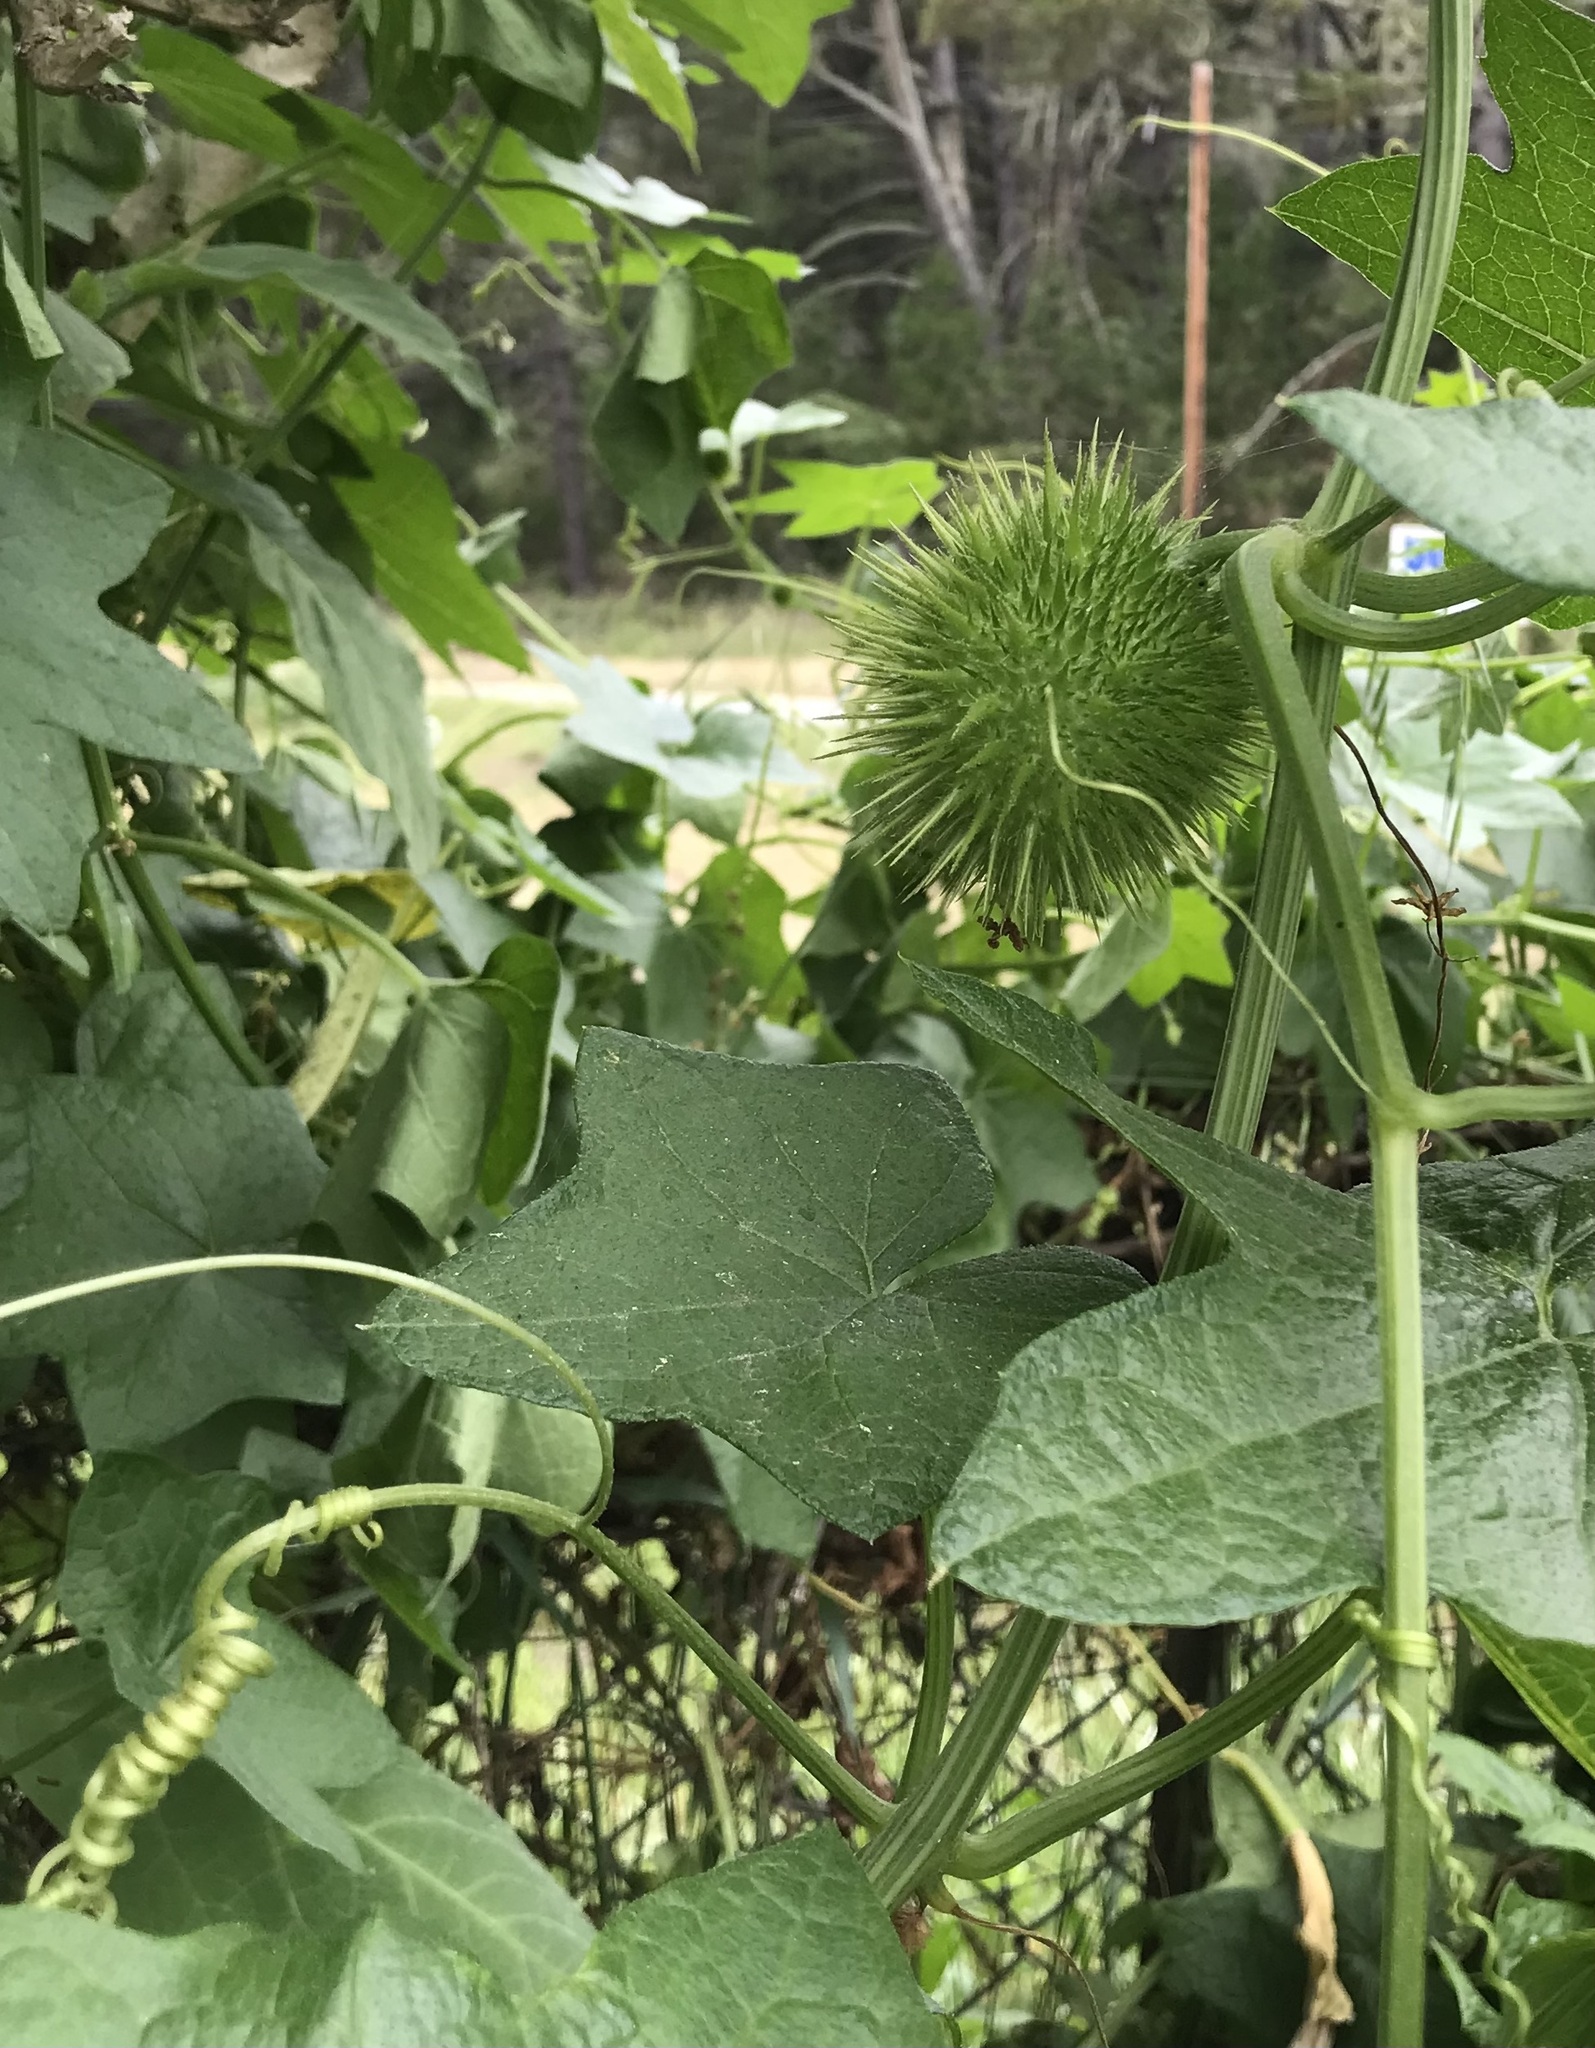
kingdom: Plantae
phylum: Tracheophyta
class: Magnoliopsida
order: Cucurbitales
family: Cucurbitaceae
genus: Marah
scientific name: Marah fabacea
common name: California manroot
